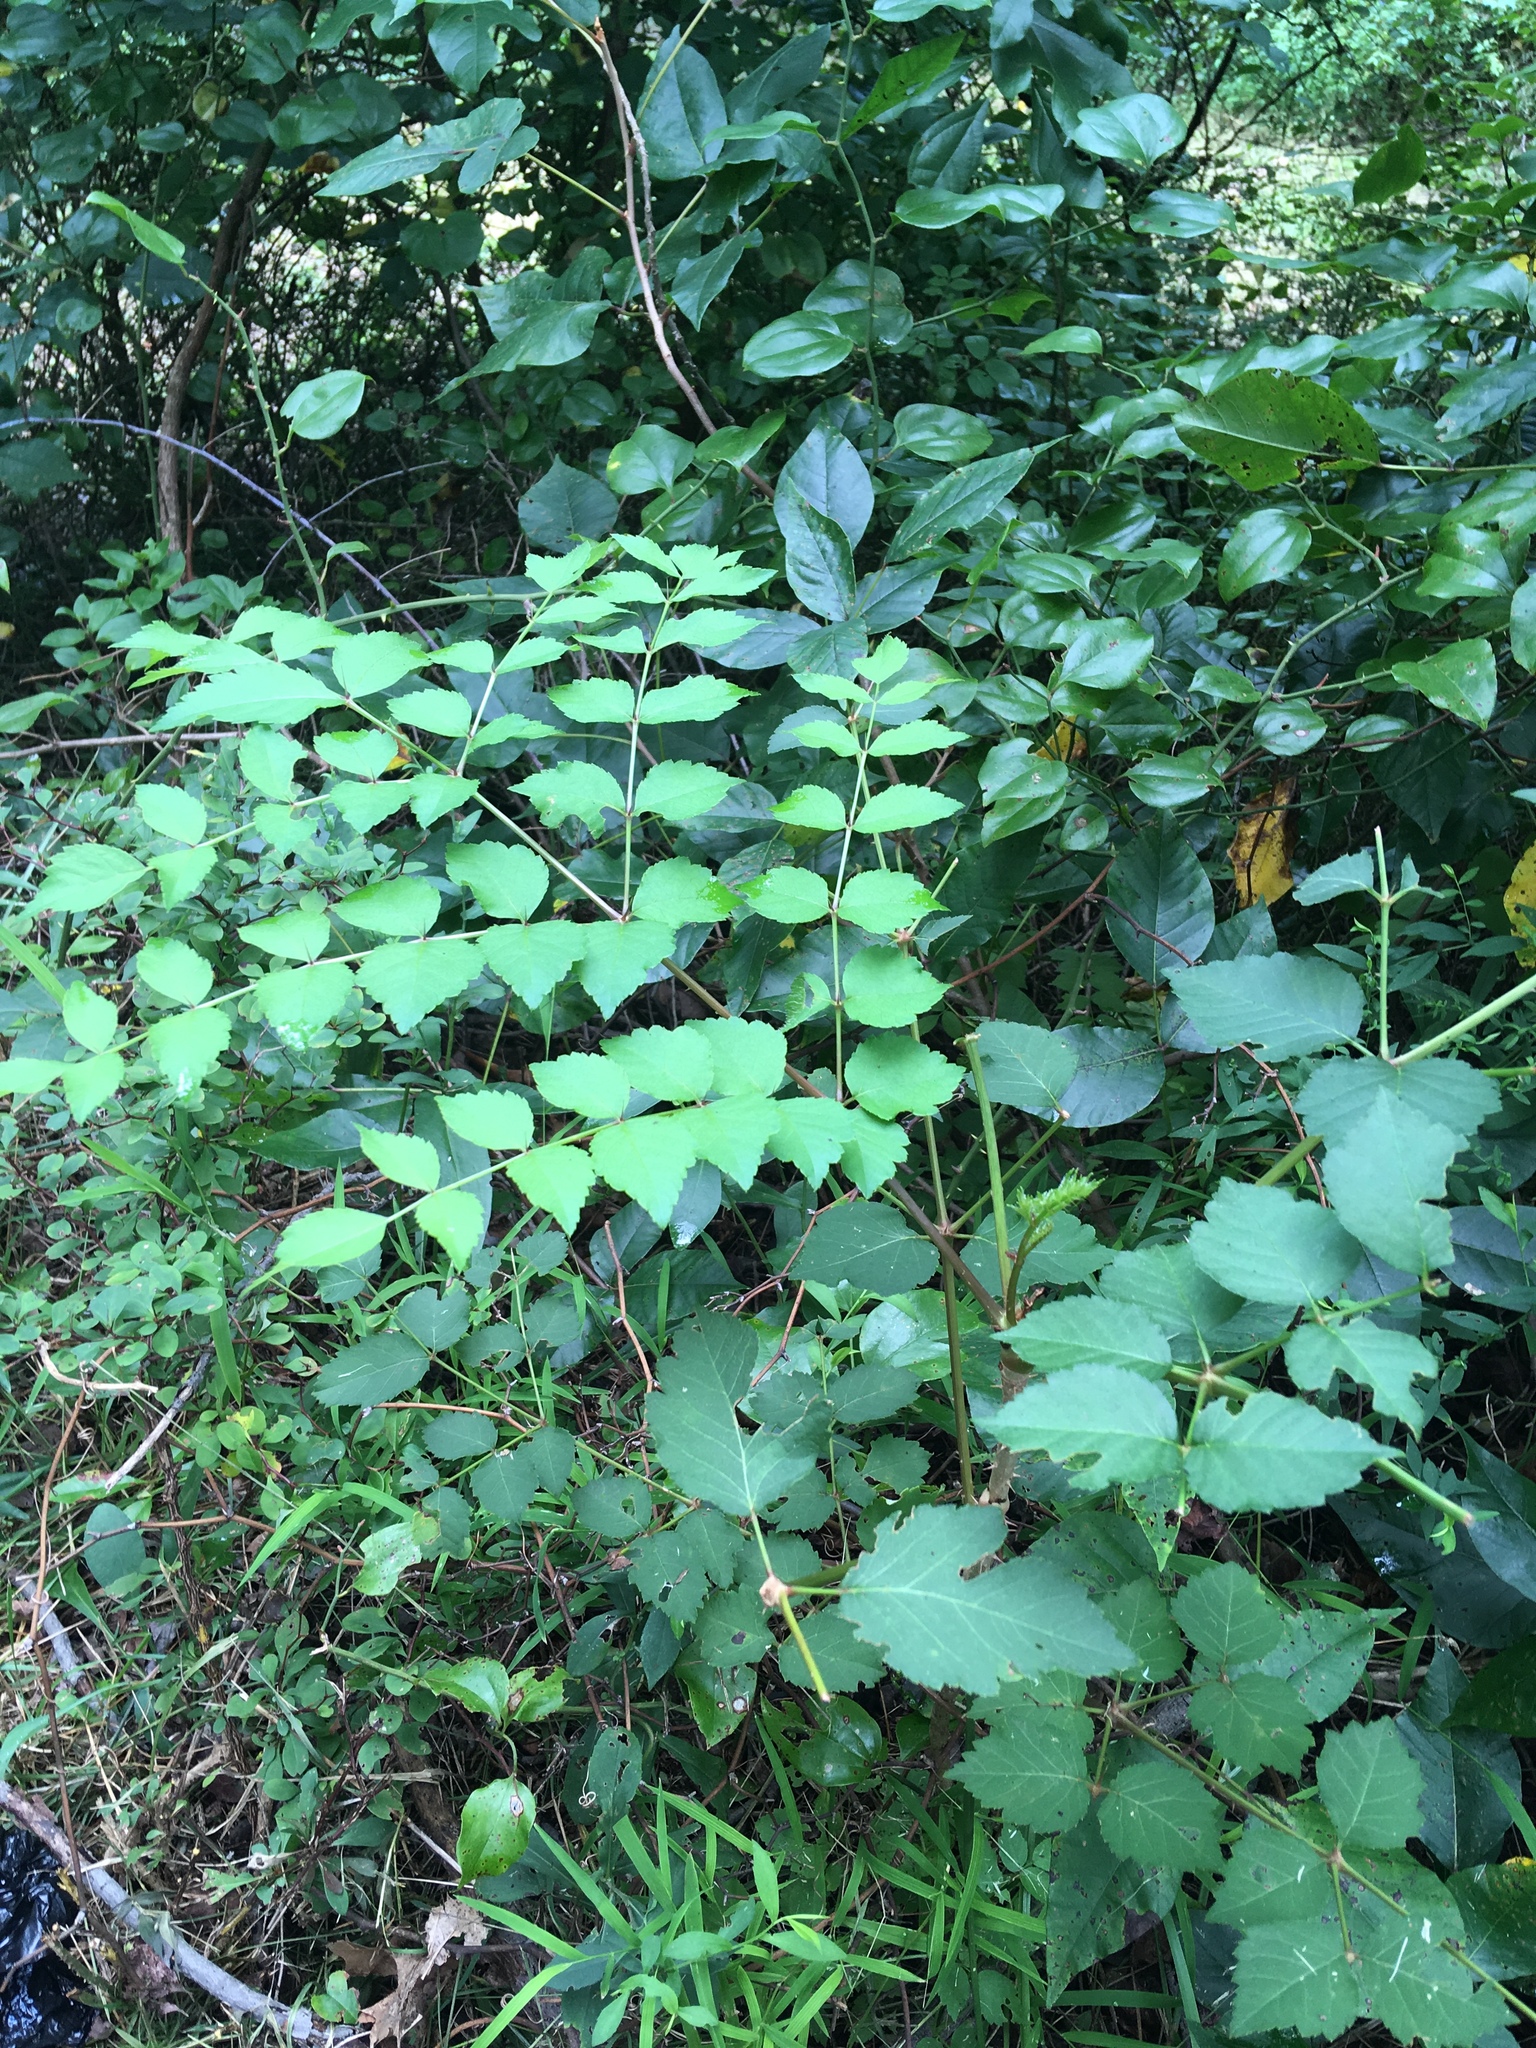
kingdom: Plantae
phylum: Tracheophyta
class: Magnoliopsida
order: Apiales
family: Araliaceae
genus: Aralia
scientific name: Aralia elata
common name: Japanese angelica-tree
